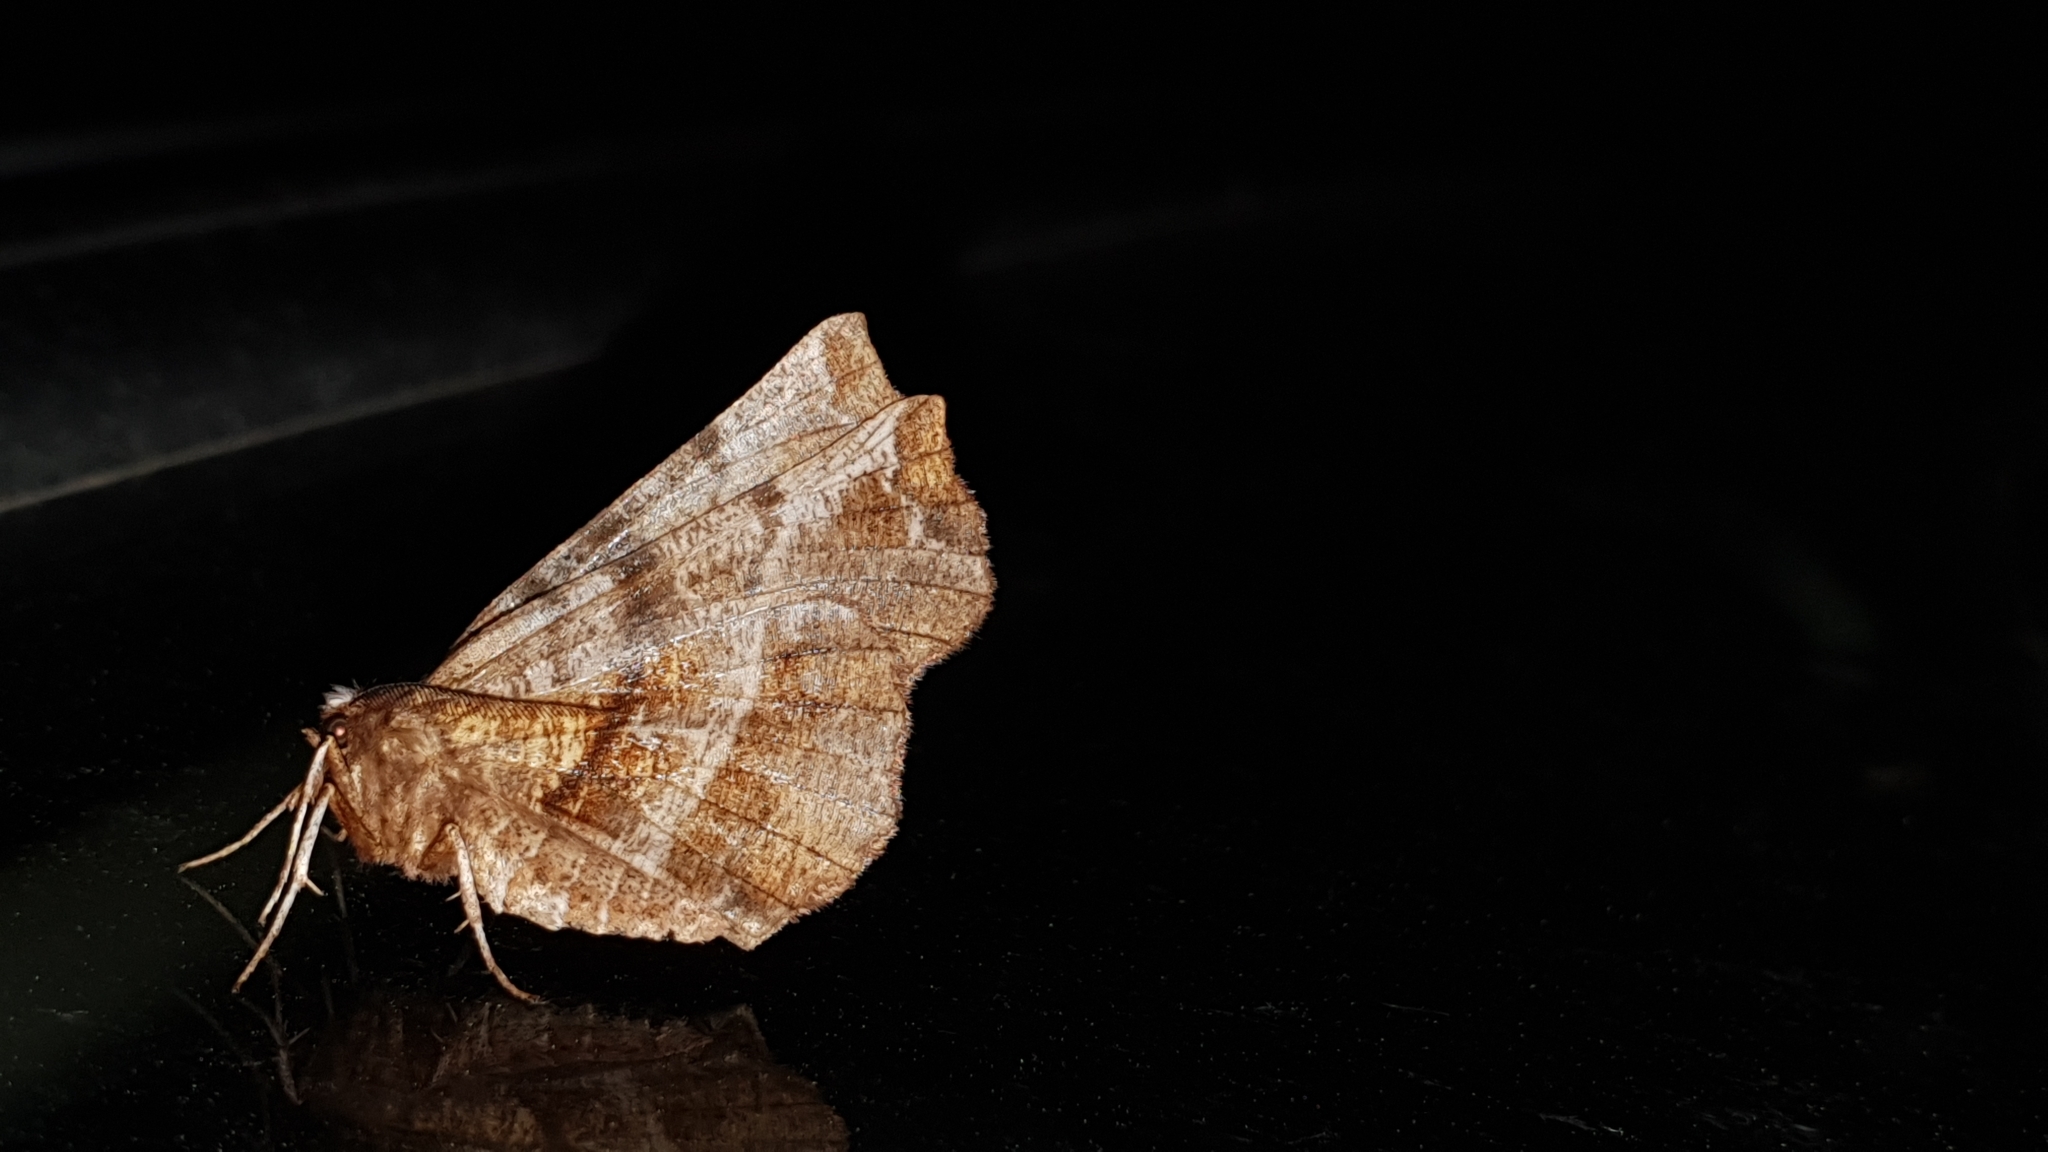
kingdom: Animalia
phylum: Arthropoda
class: Insecta
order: Lepidoptera
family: Geometridae
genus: Selenia
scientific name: Selenia dentaria
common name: Early thorn
